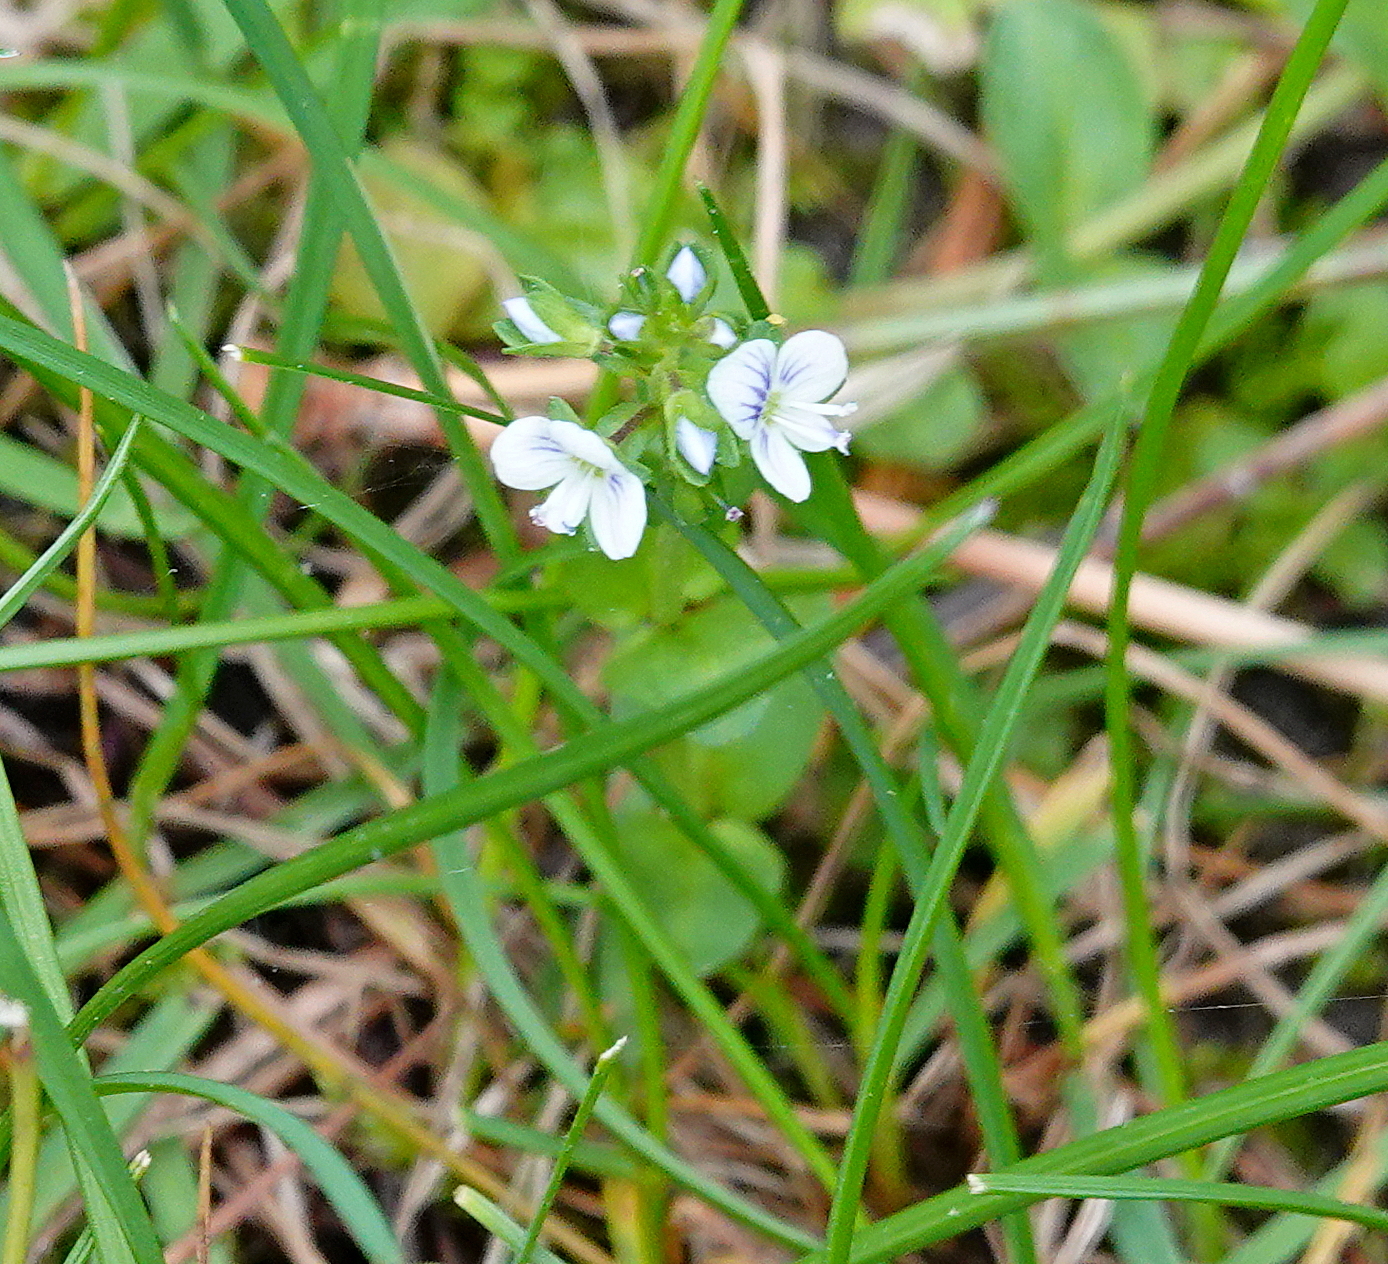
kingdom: Plantae
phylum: Tracheophyta
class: Magnoliopsida
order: Lamiales
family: Plantaginaceae
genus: Veronica
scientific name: Veronica serpyllifolia
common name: Thyme-leaved speedwell
